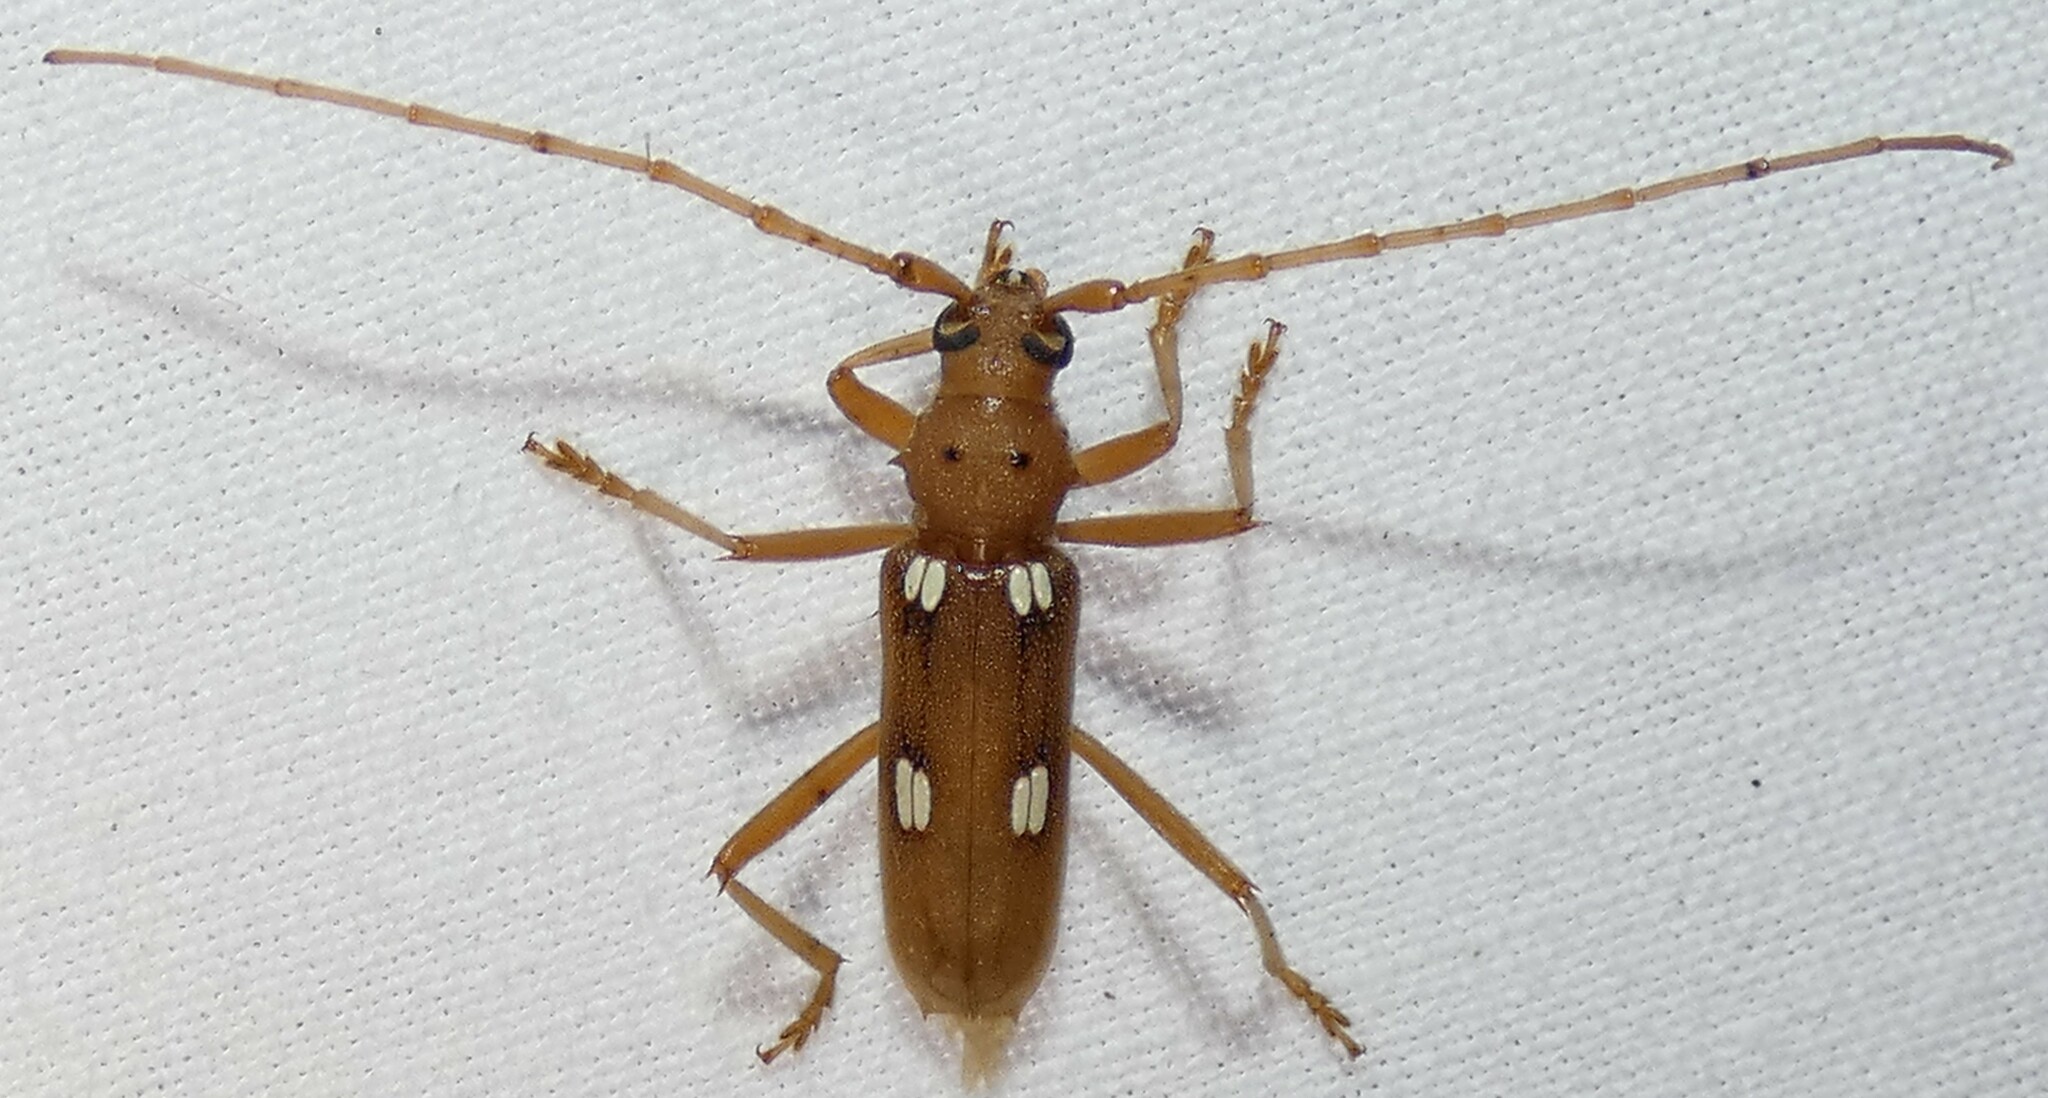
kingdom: Animalia
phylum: Arthropoda
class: Insecta
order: Coleoptera
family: Cerambycidae
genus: Eburia
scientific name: Eburia quadrigeminata
